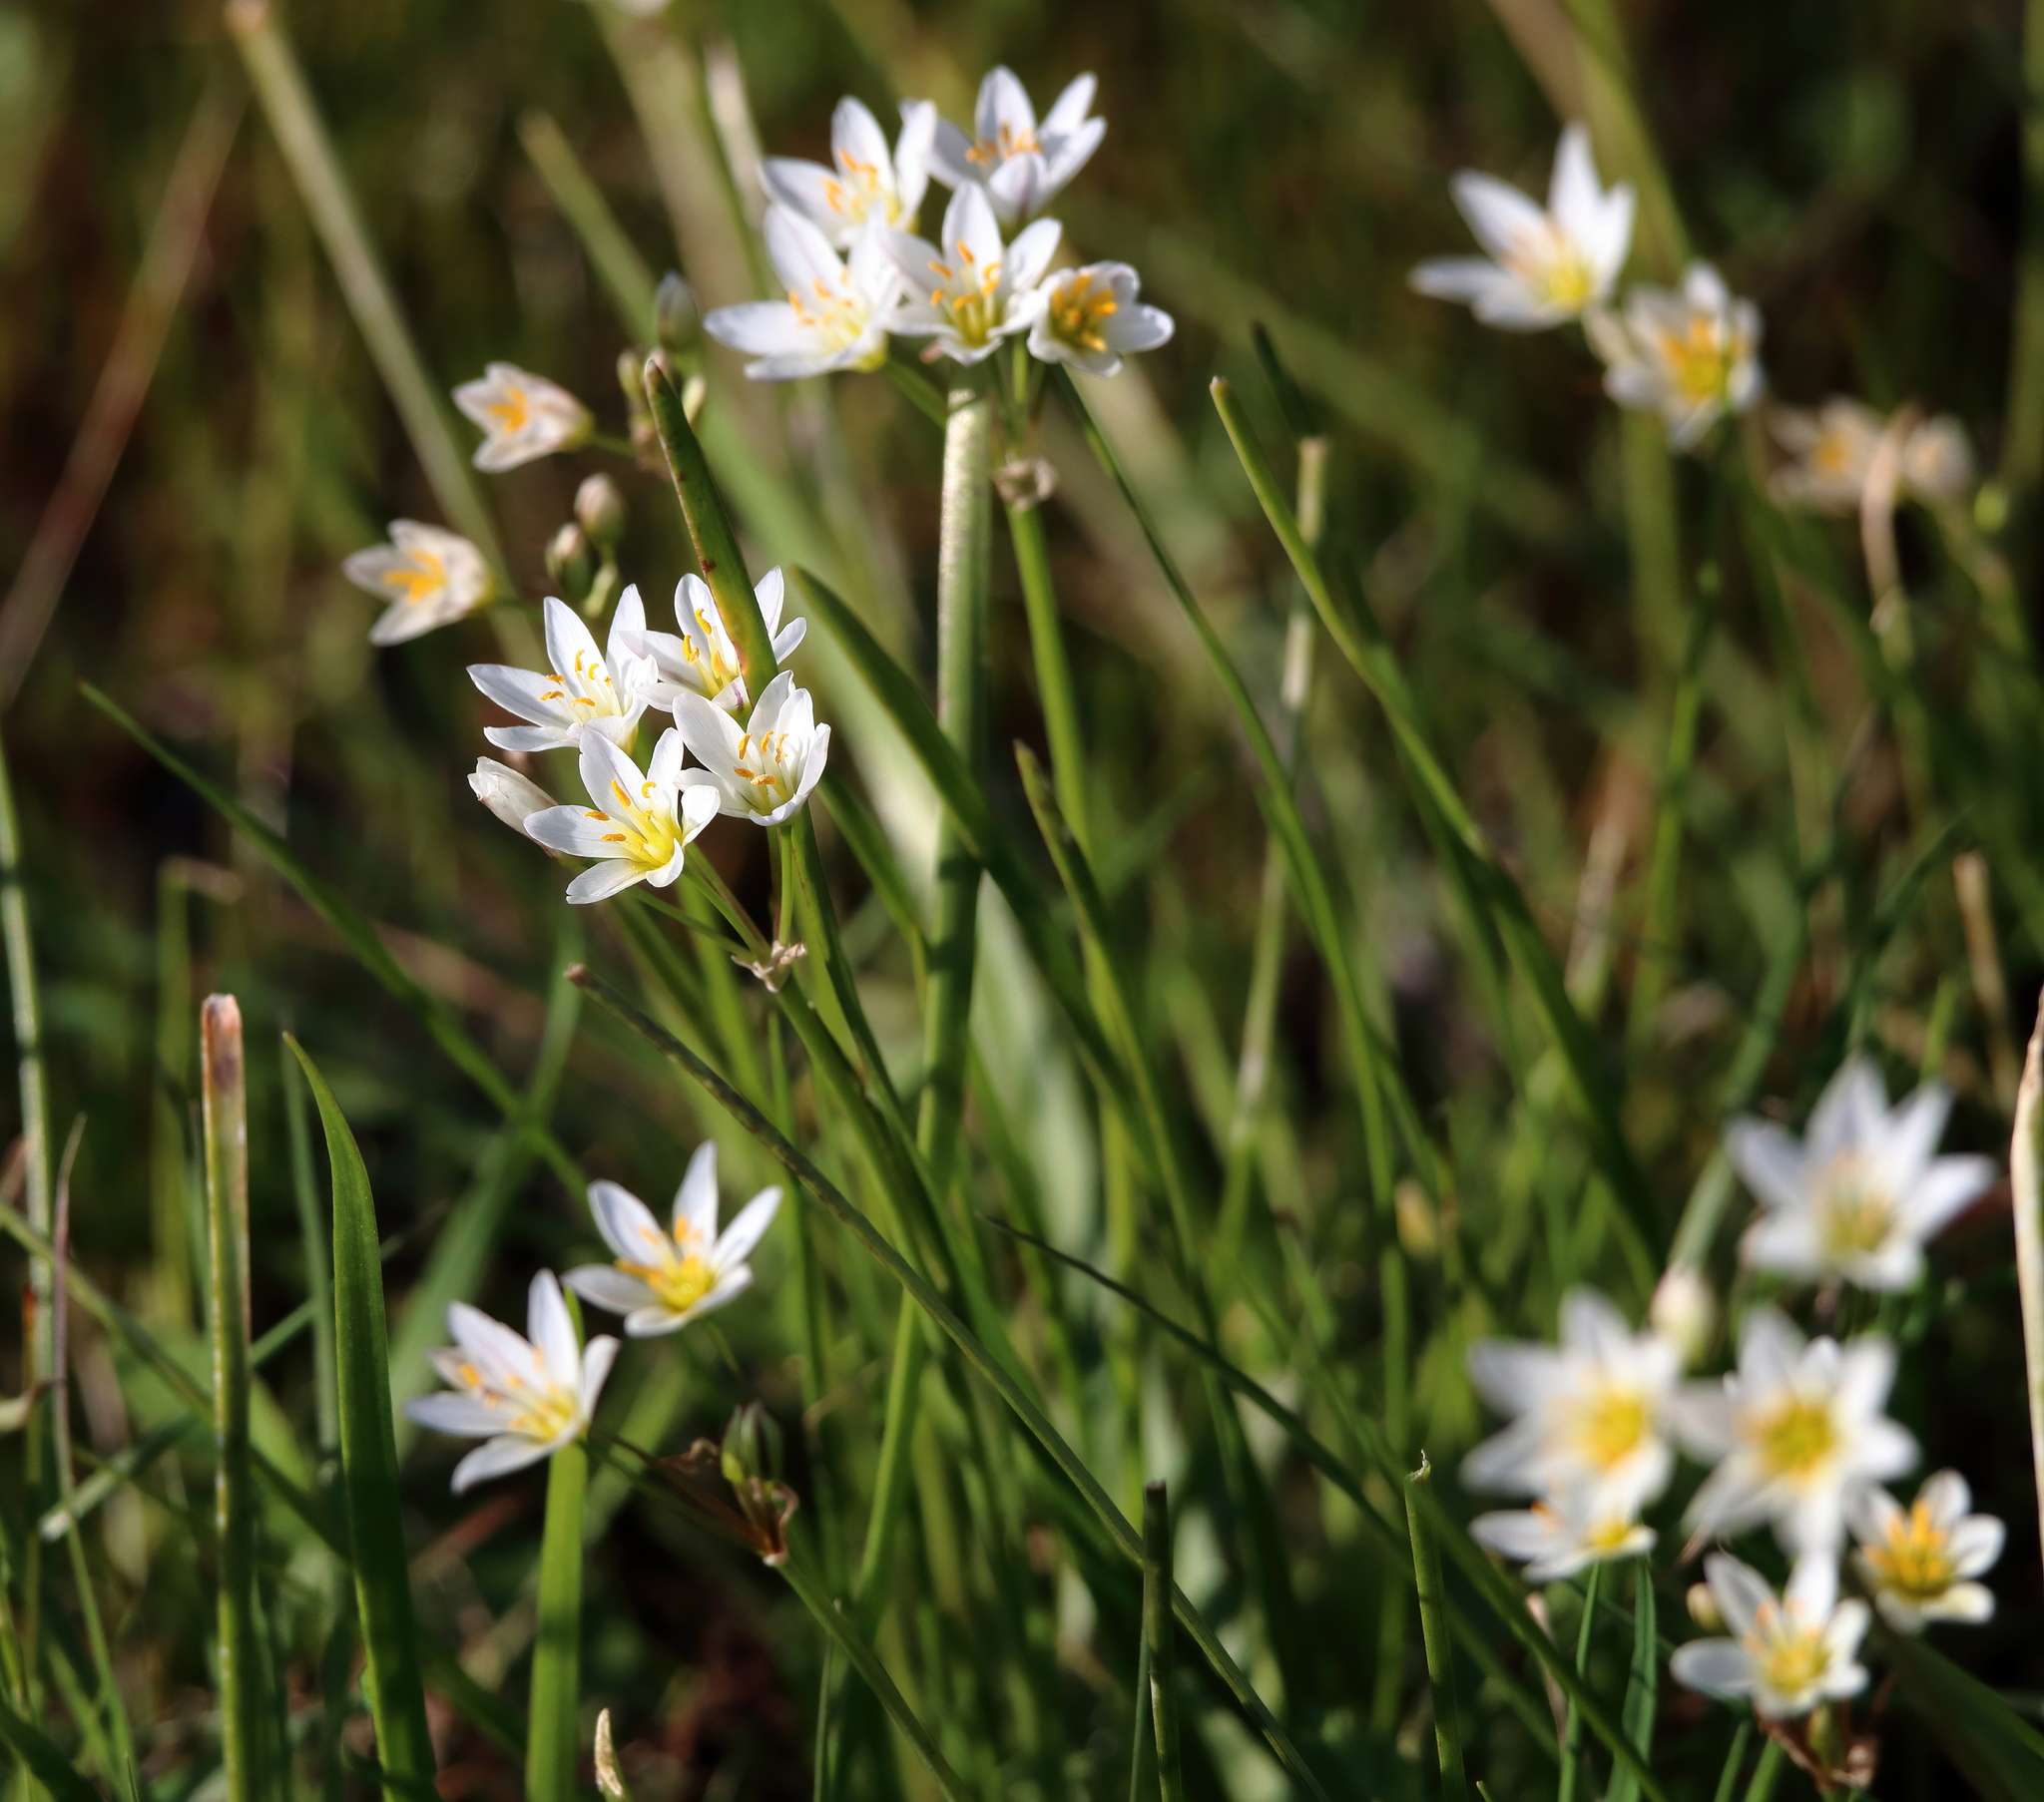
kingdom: Plantae
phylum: Tracheophyta
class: Liliopsida
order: Asparagales
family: Amaryllidaceae
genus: Nothoscordum
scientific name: Nothoscordum bivalve
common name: Crow-poison
